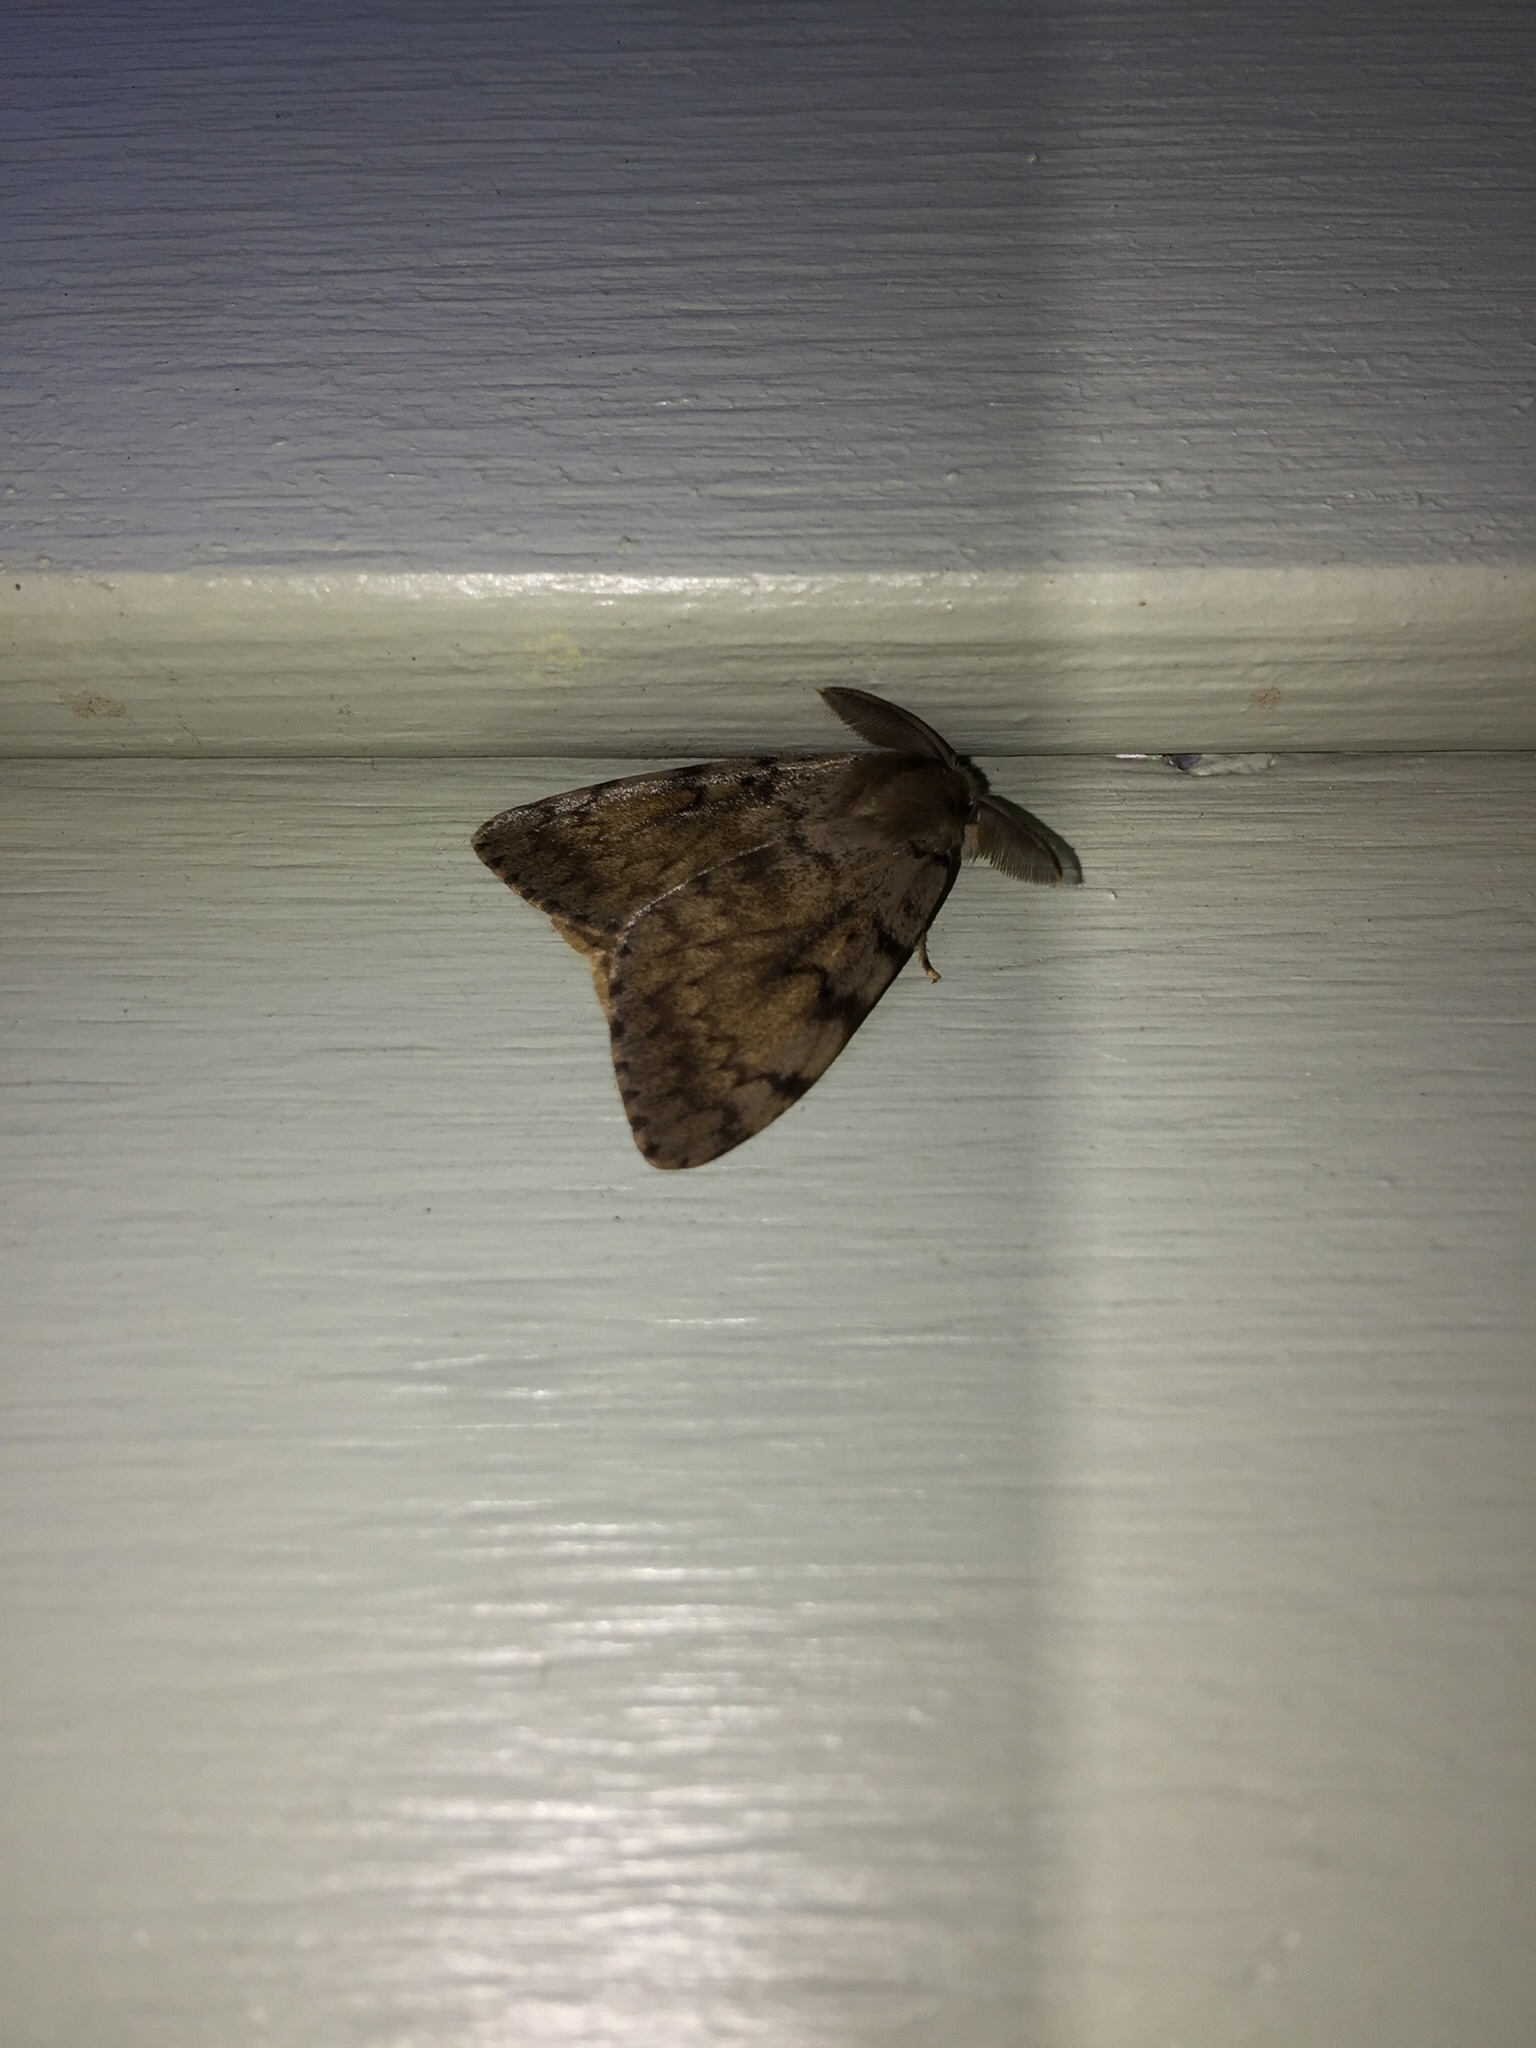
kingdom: Animalia
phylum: Arthropoda
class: Insecta
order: Lepidoptera
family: Erebidae
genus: Lymantria
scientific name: Lymantria dispar
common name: Gypsy moth
